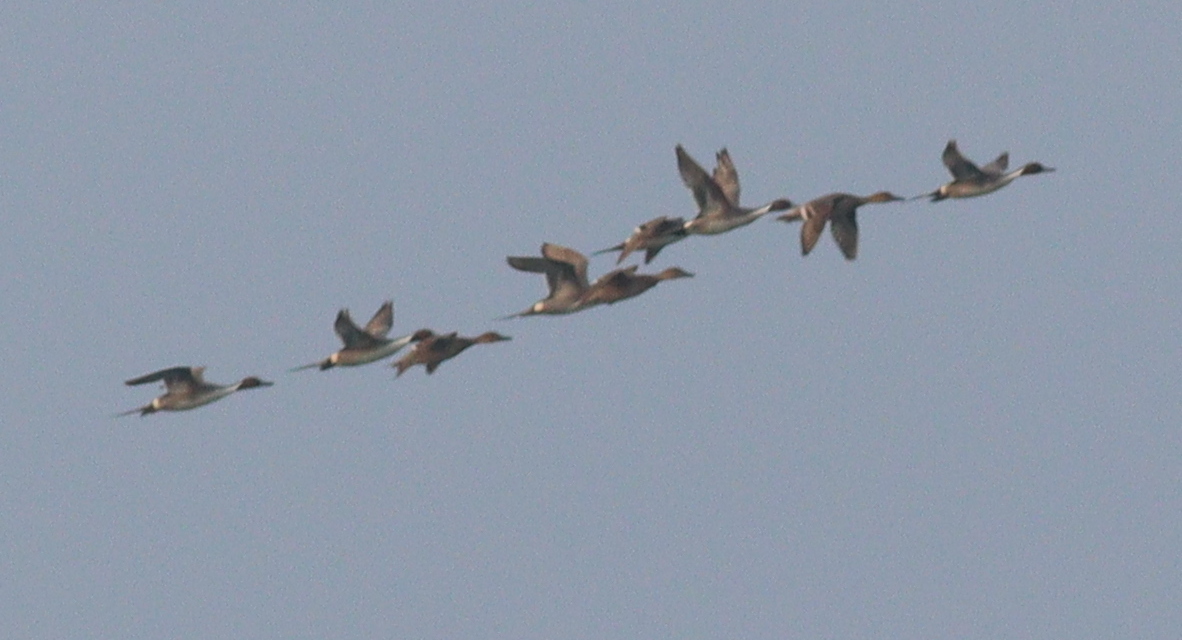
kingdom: Animalia
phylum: Chordata
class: Aves
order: Anseriformes
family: Anatidae
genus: Anas
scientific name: Anas acuta
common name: Northern pintail
